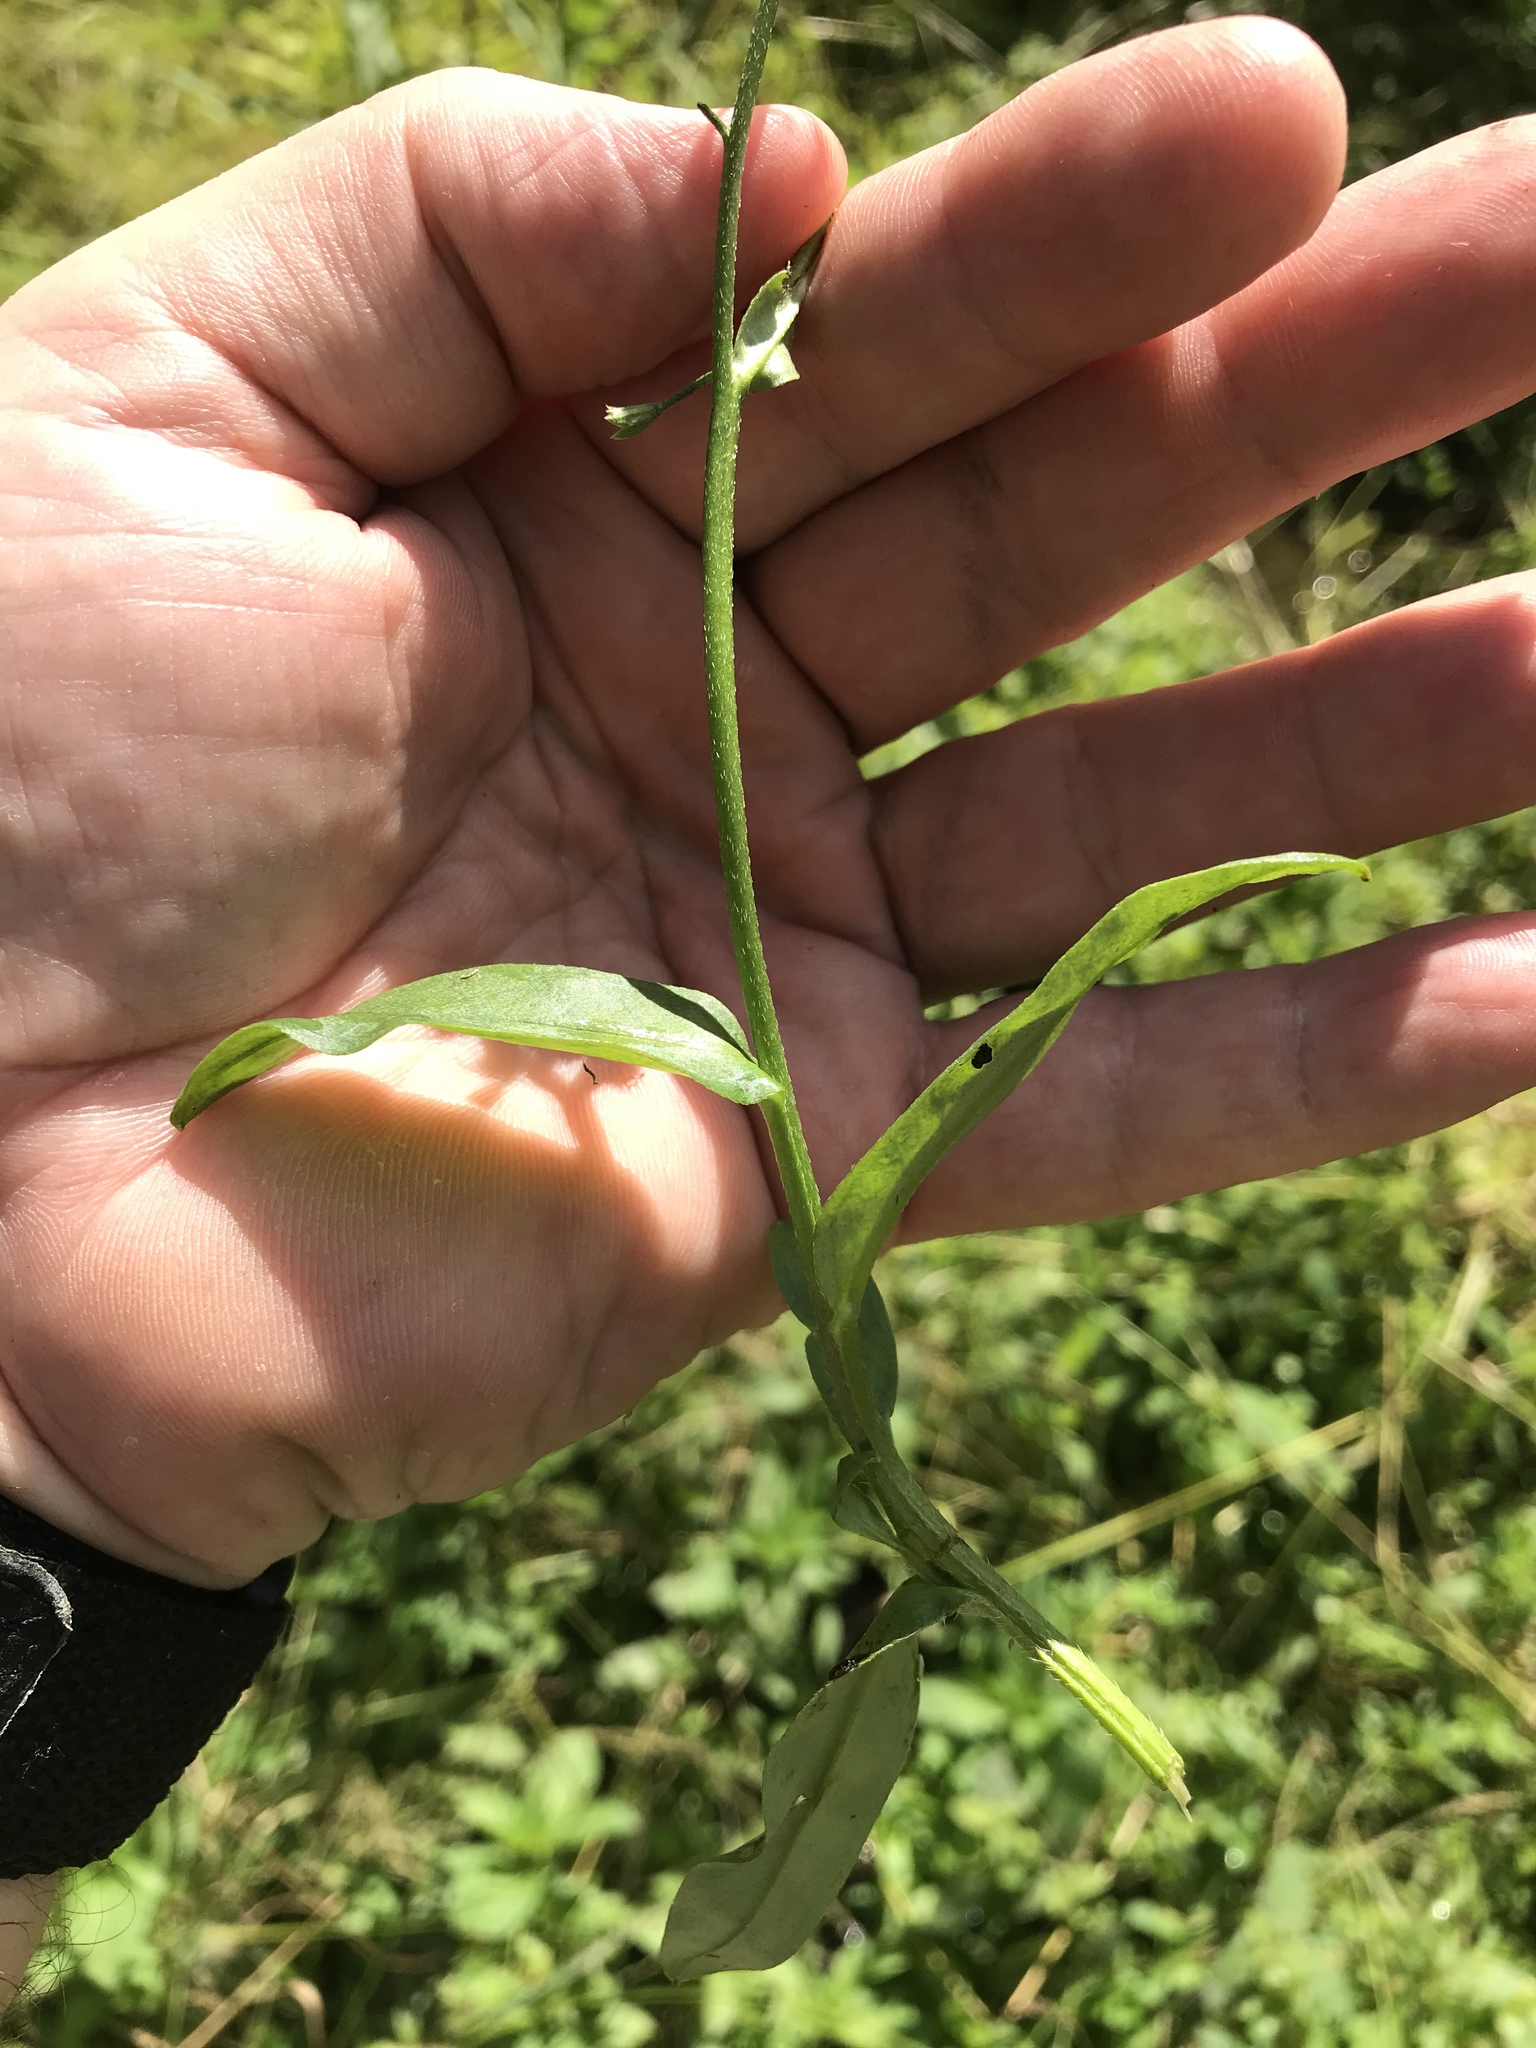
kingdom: Plantae
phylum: Tracheophyta
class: Magnoliopsida
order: Boraginales
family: Boraginaceae
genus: Myosotis
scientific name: Myosotis scorpioides
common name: Water forget-me-not
